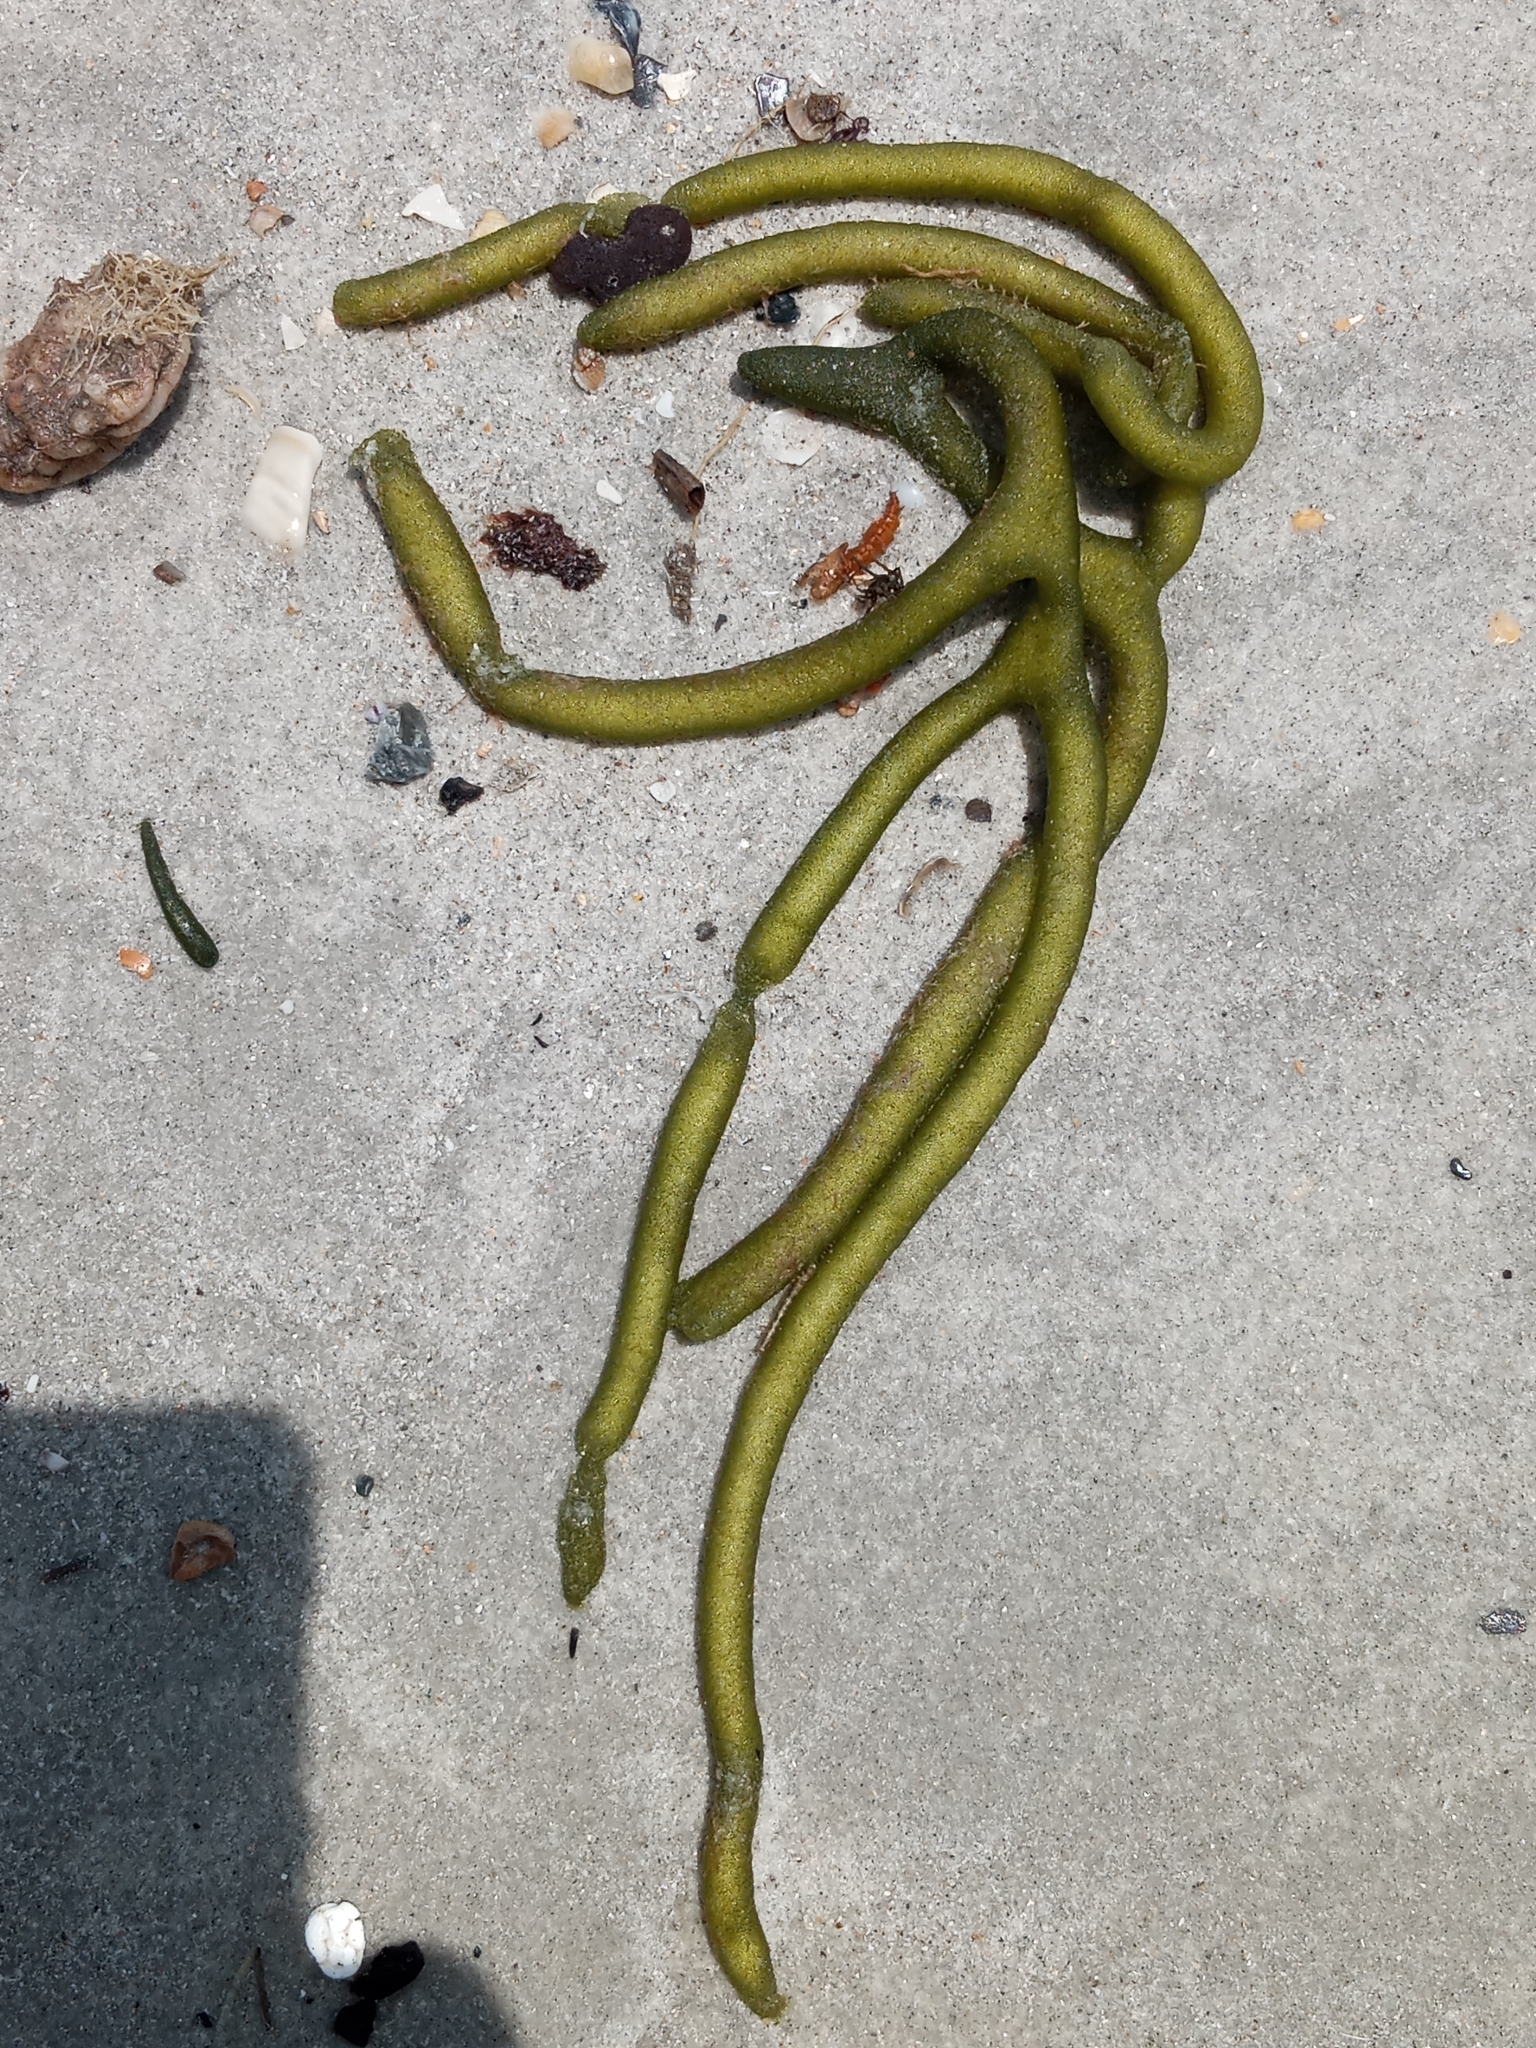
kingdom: Plantae
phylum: Chlorophyta
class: Ulvophyceae
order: Bryopsidales
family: Codiaceae
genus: Codium
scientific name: Codium fragile
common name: Dead man's fingers
